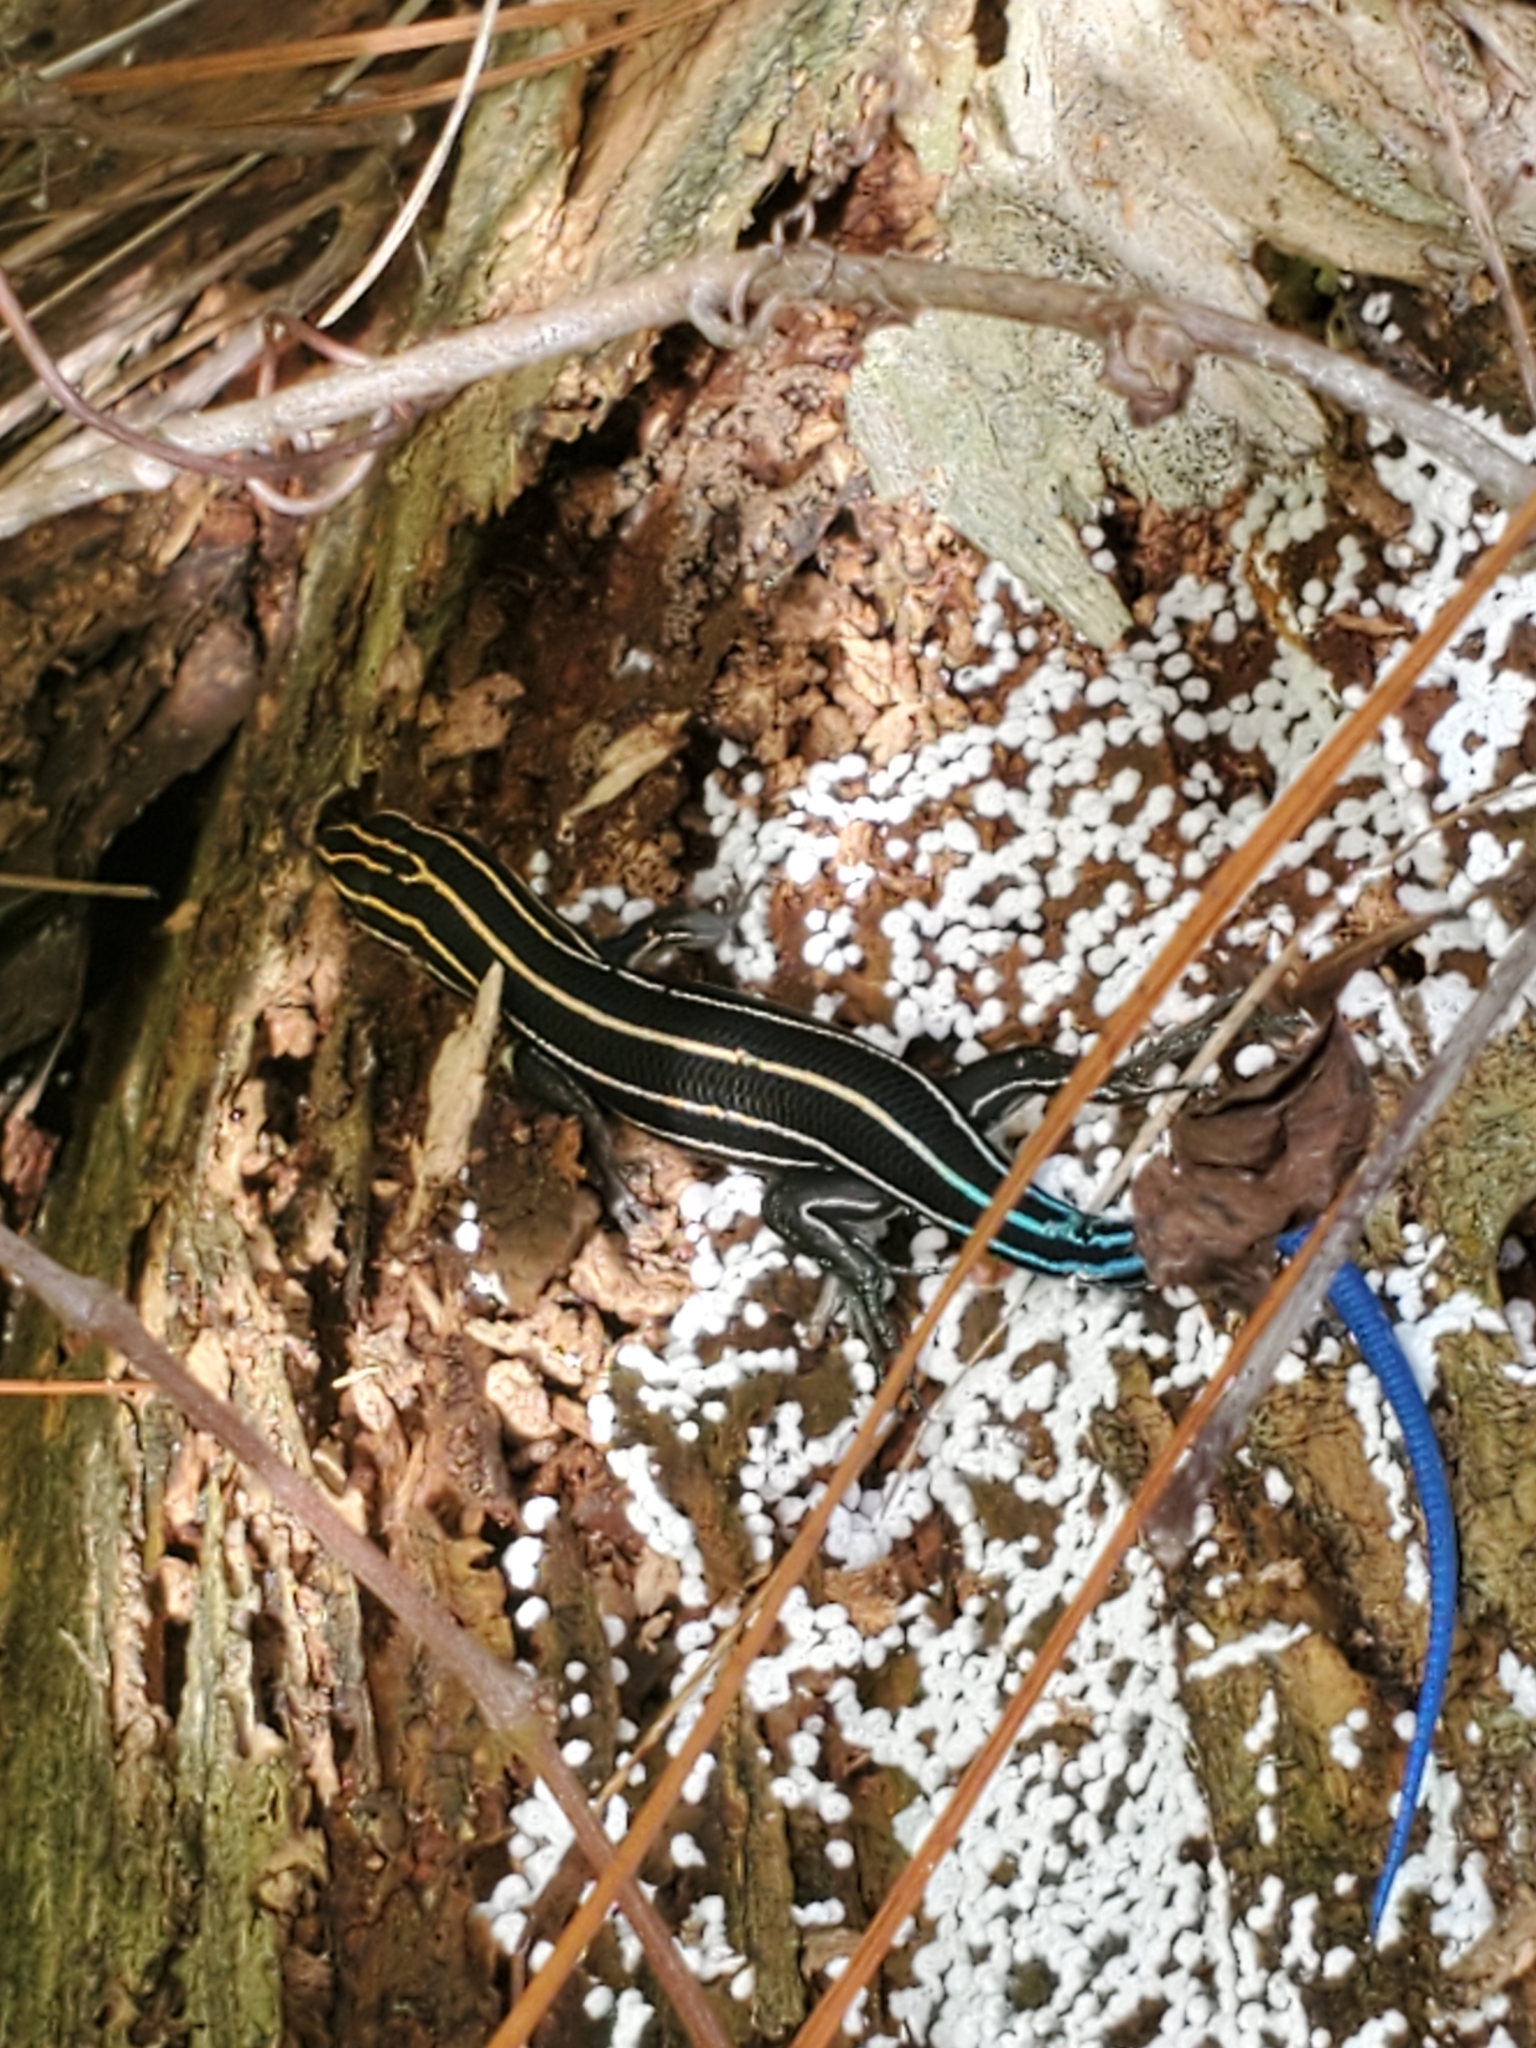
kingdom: Animalia
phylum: Chordata
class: Squamata
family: Scincidae
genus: Plestiodon
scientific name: Plestiodon inexpectatus
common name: Southeastern five-lined skink
